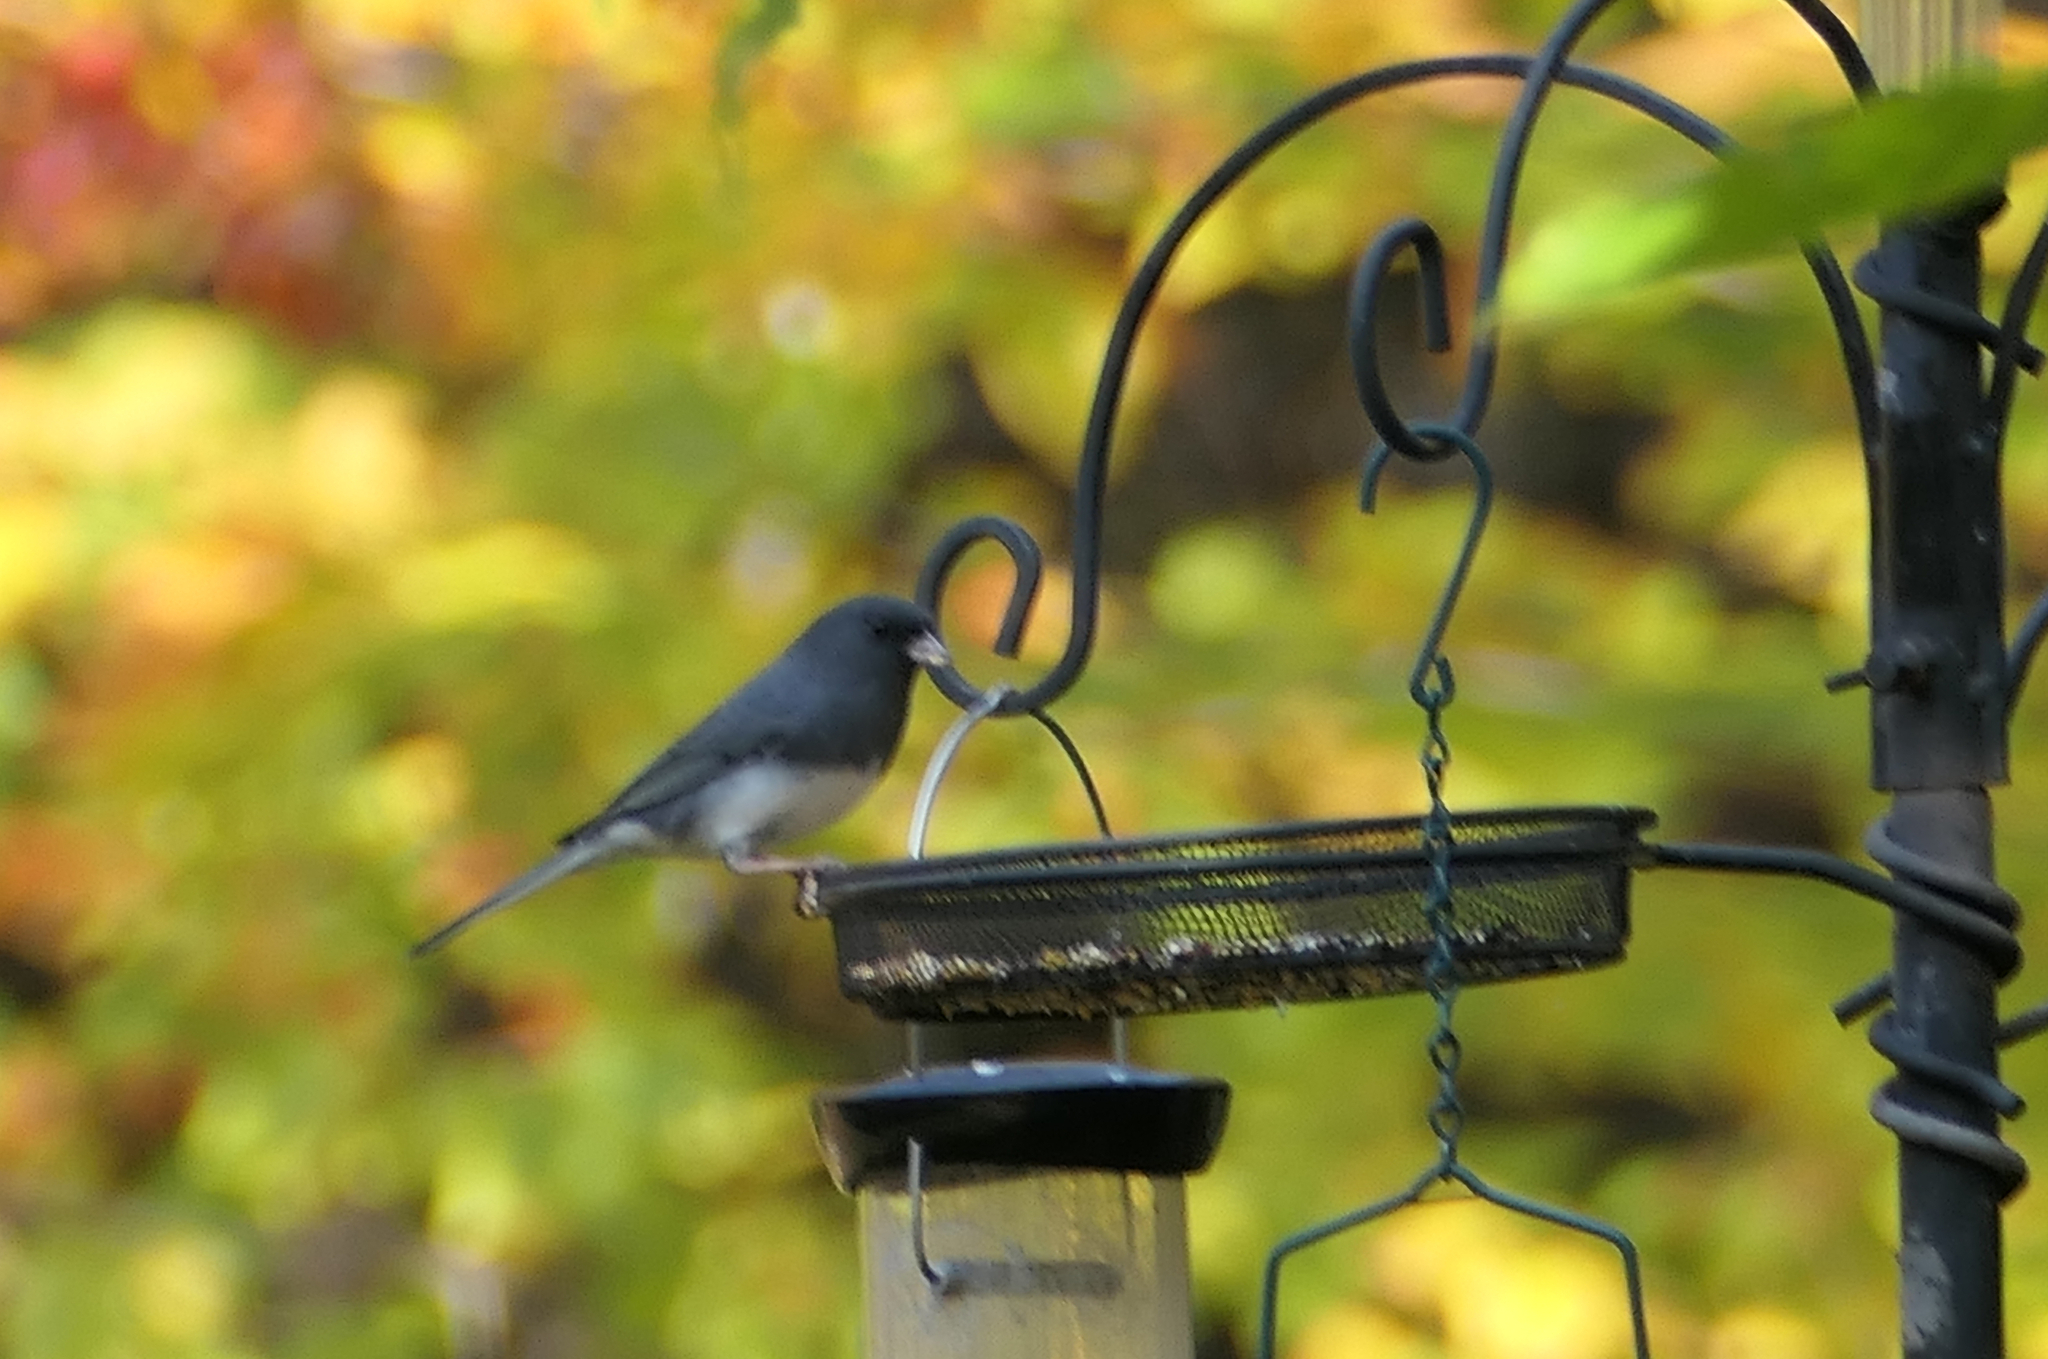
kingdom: Animalia
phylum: Chordata
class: Aves
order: Passeriformes
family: Passerellidae
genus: Junco
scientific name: Junco hyemalis
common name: Dark-eyed junco
